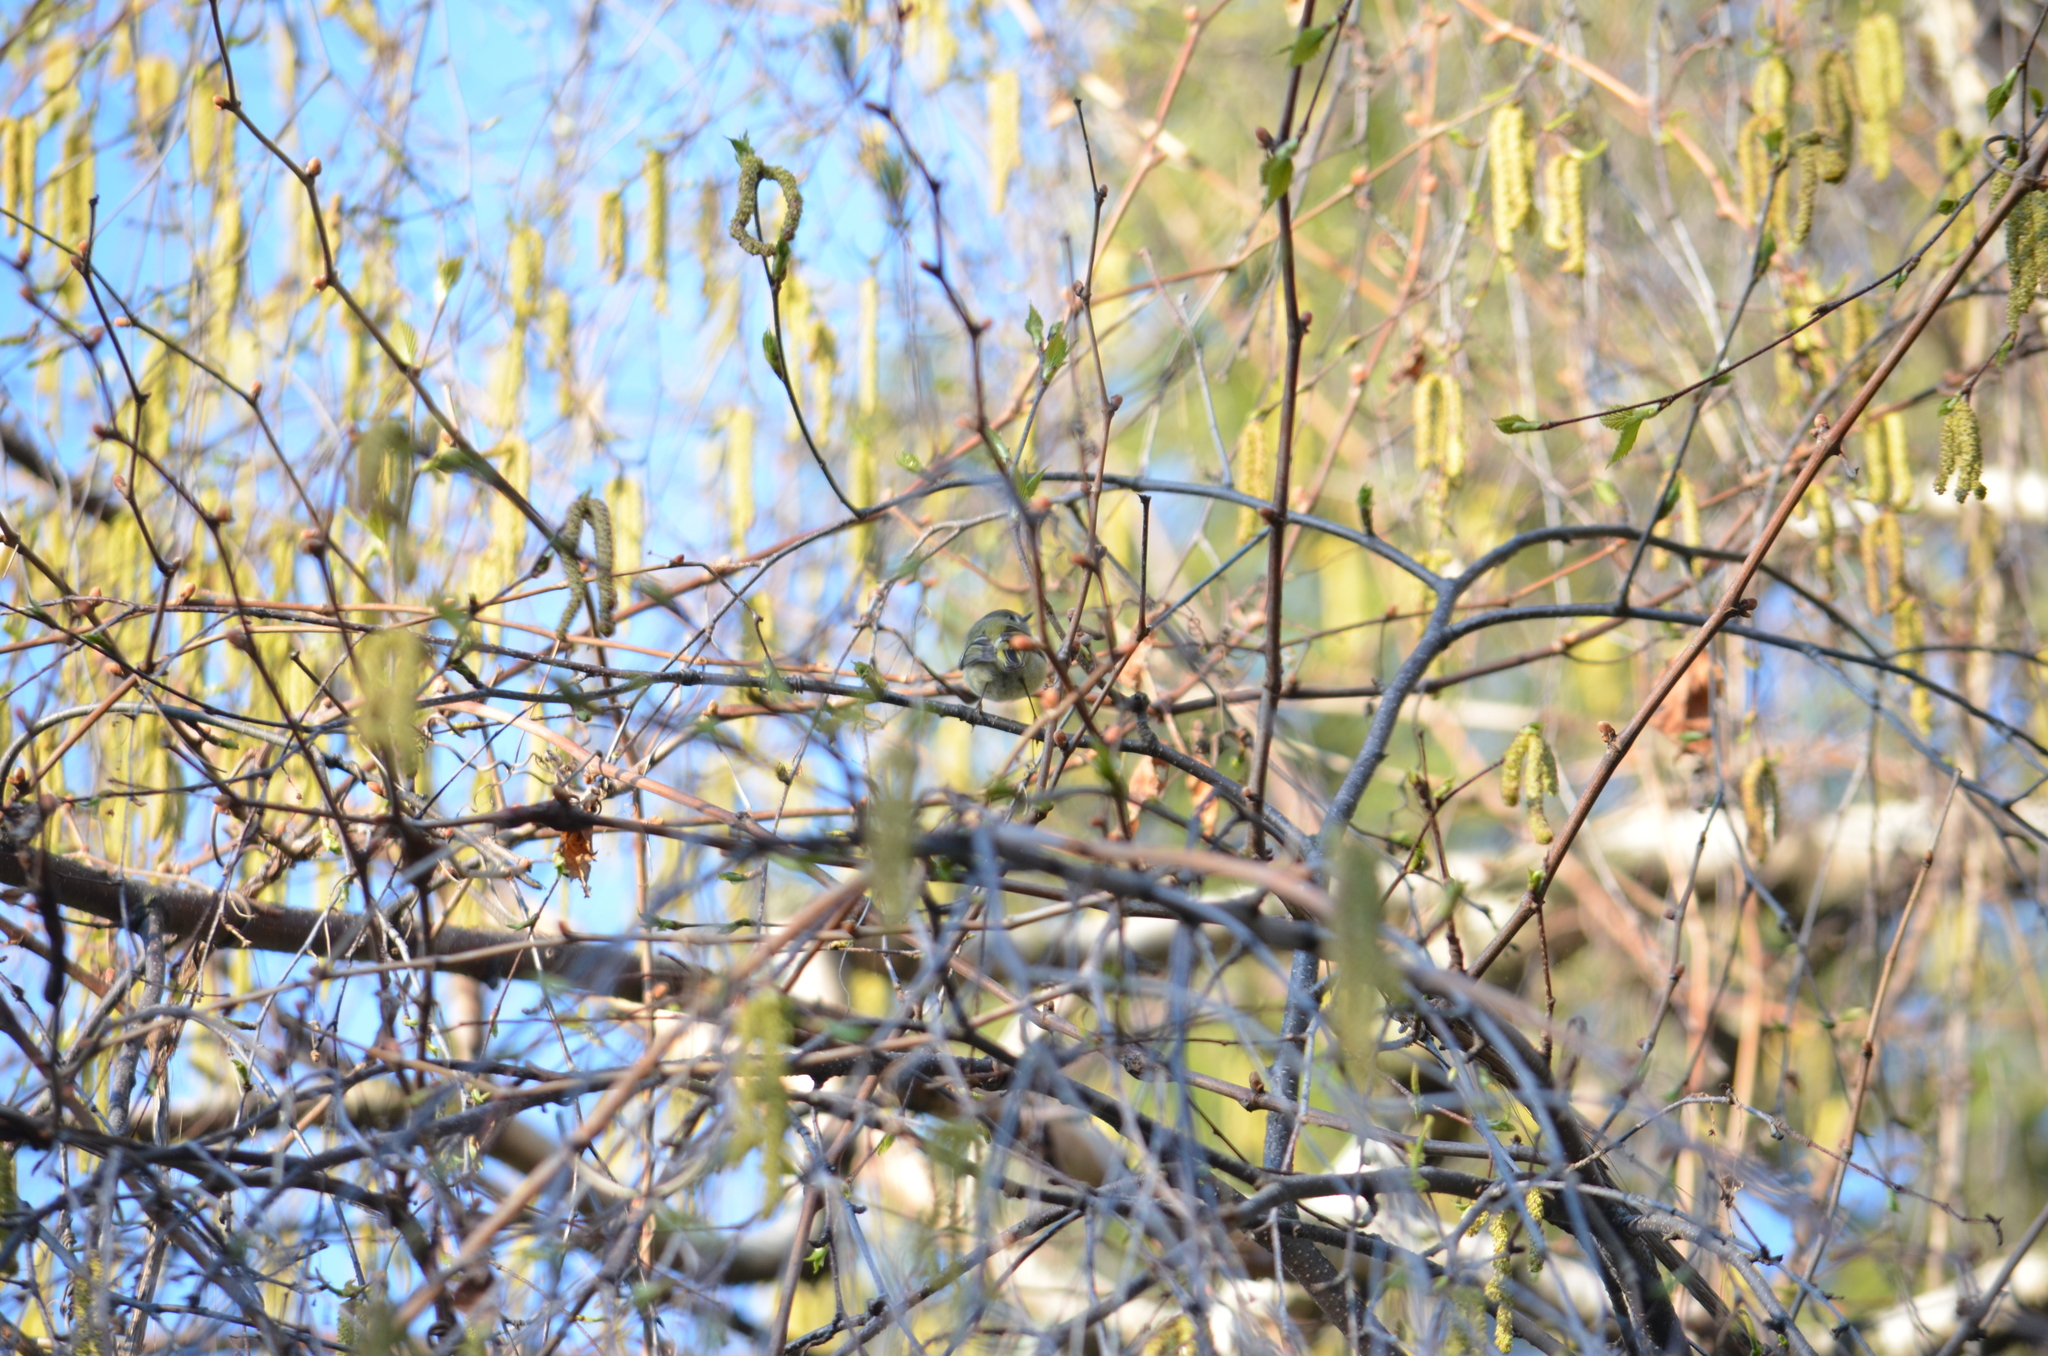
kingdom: Animalia
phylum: Chordata
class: Aves
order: Passeriformes
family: Regulidae
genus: Regulus
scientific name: Regulus calendula
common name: Ruby-crowned kinglet
